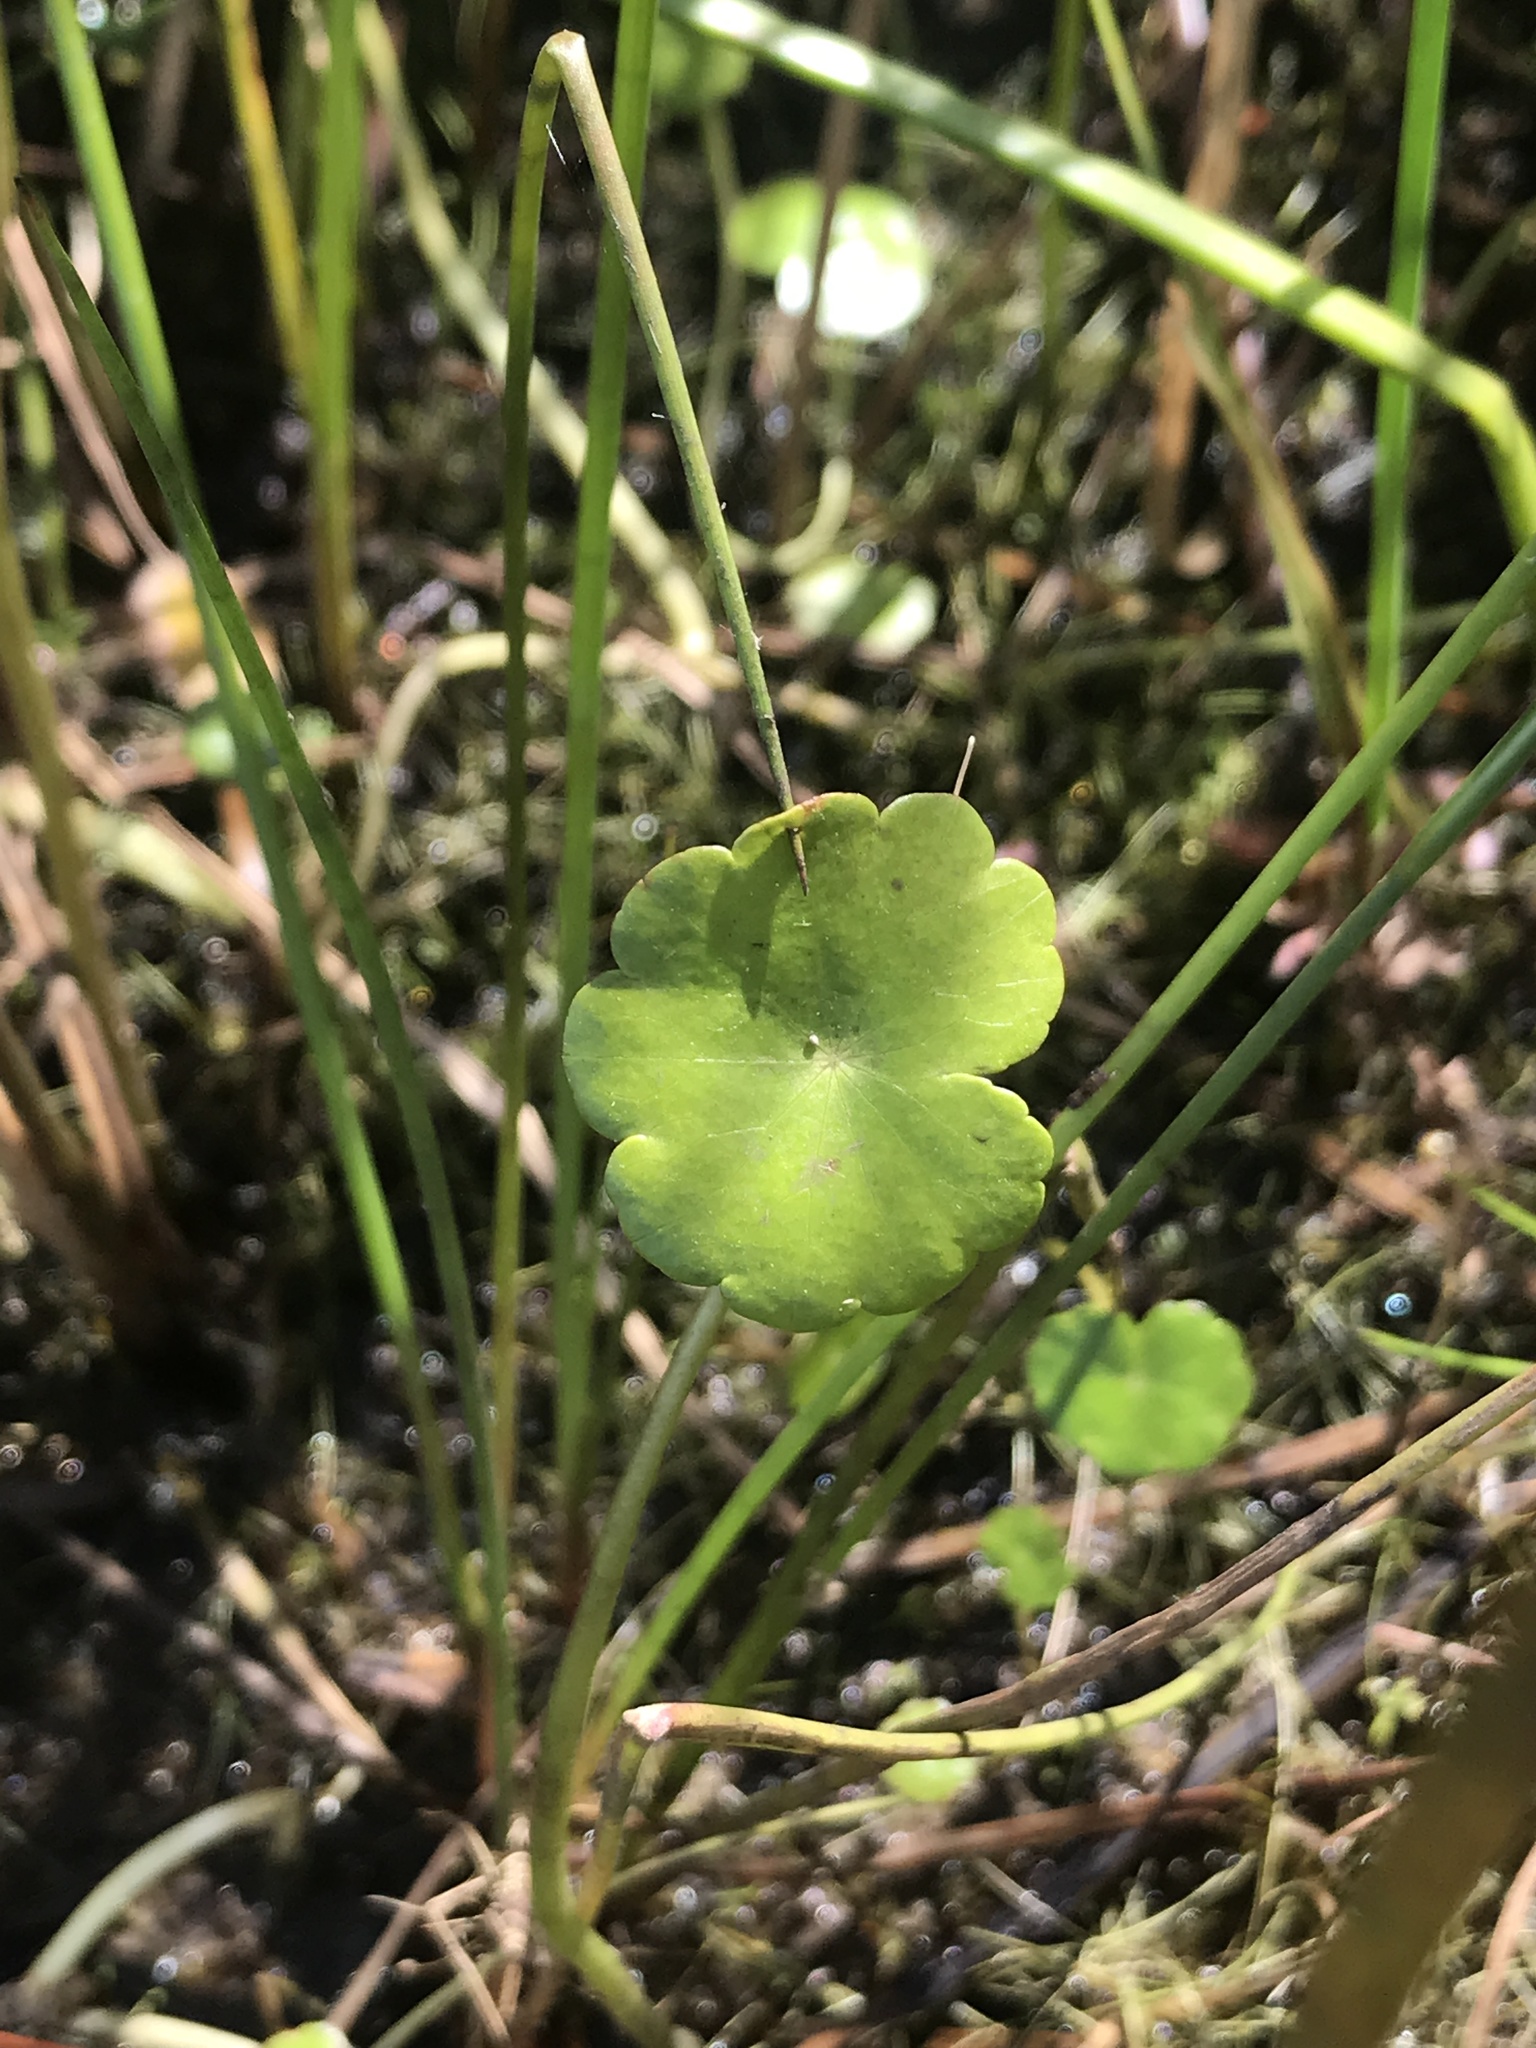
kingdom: Plantae
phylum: Tracheophyta
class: Magnoliopsida
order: Apiales
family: Araliaceae
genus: Hydrocotyle
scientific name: Hydrocotyle
